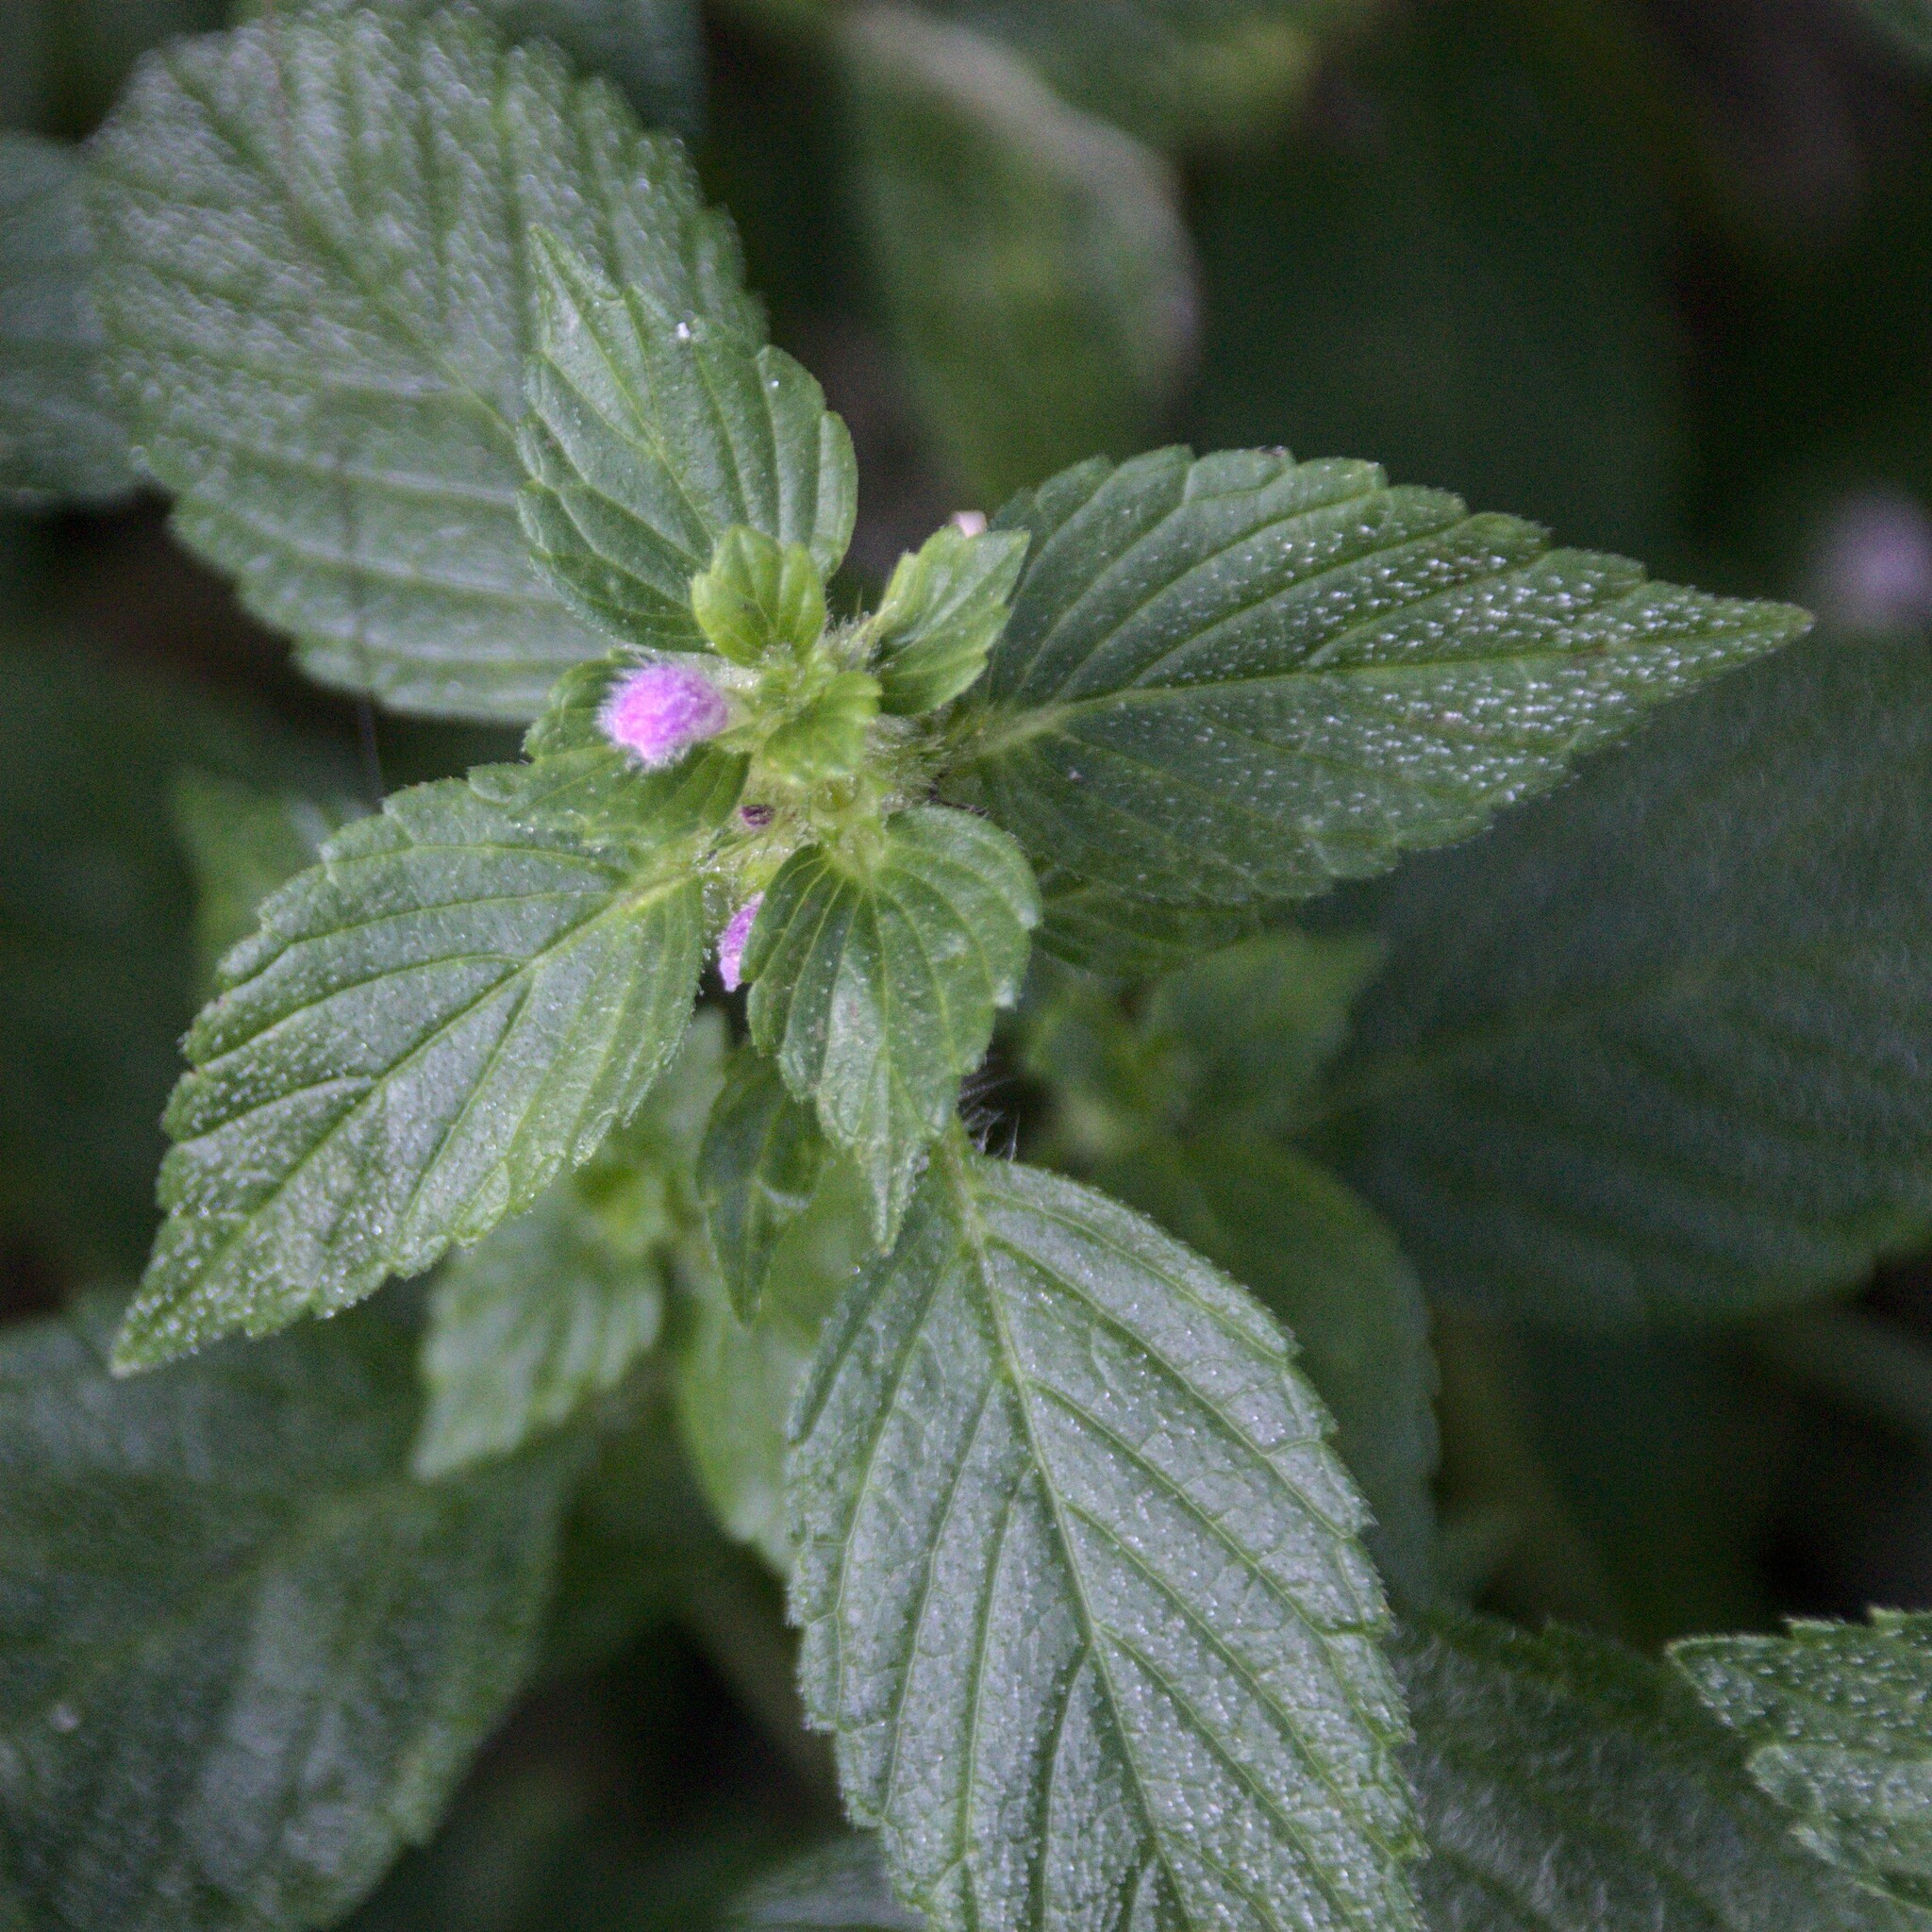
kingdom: Plantae
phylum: Tracheophyta
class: Magnoliopsida
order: Lamiales
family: Lamiaceae
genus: Galeopsis
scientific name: Galeopsis bifida
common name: Bifid hemp-nettle
